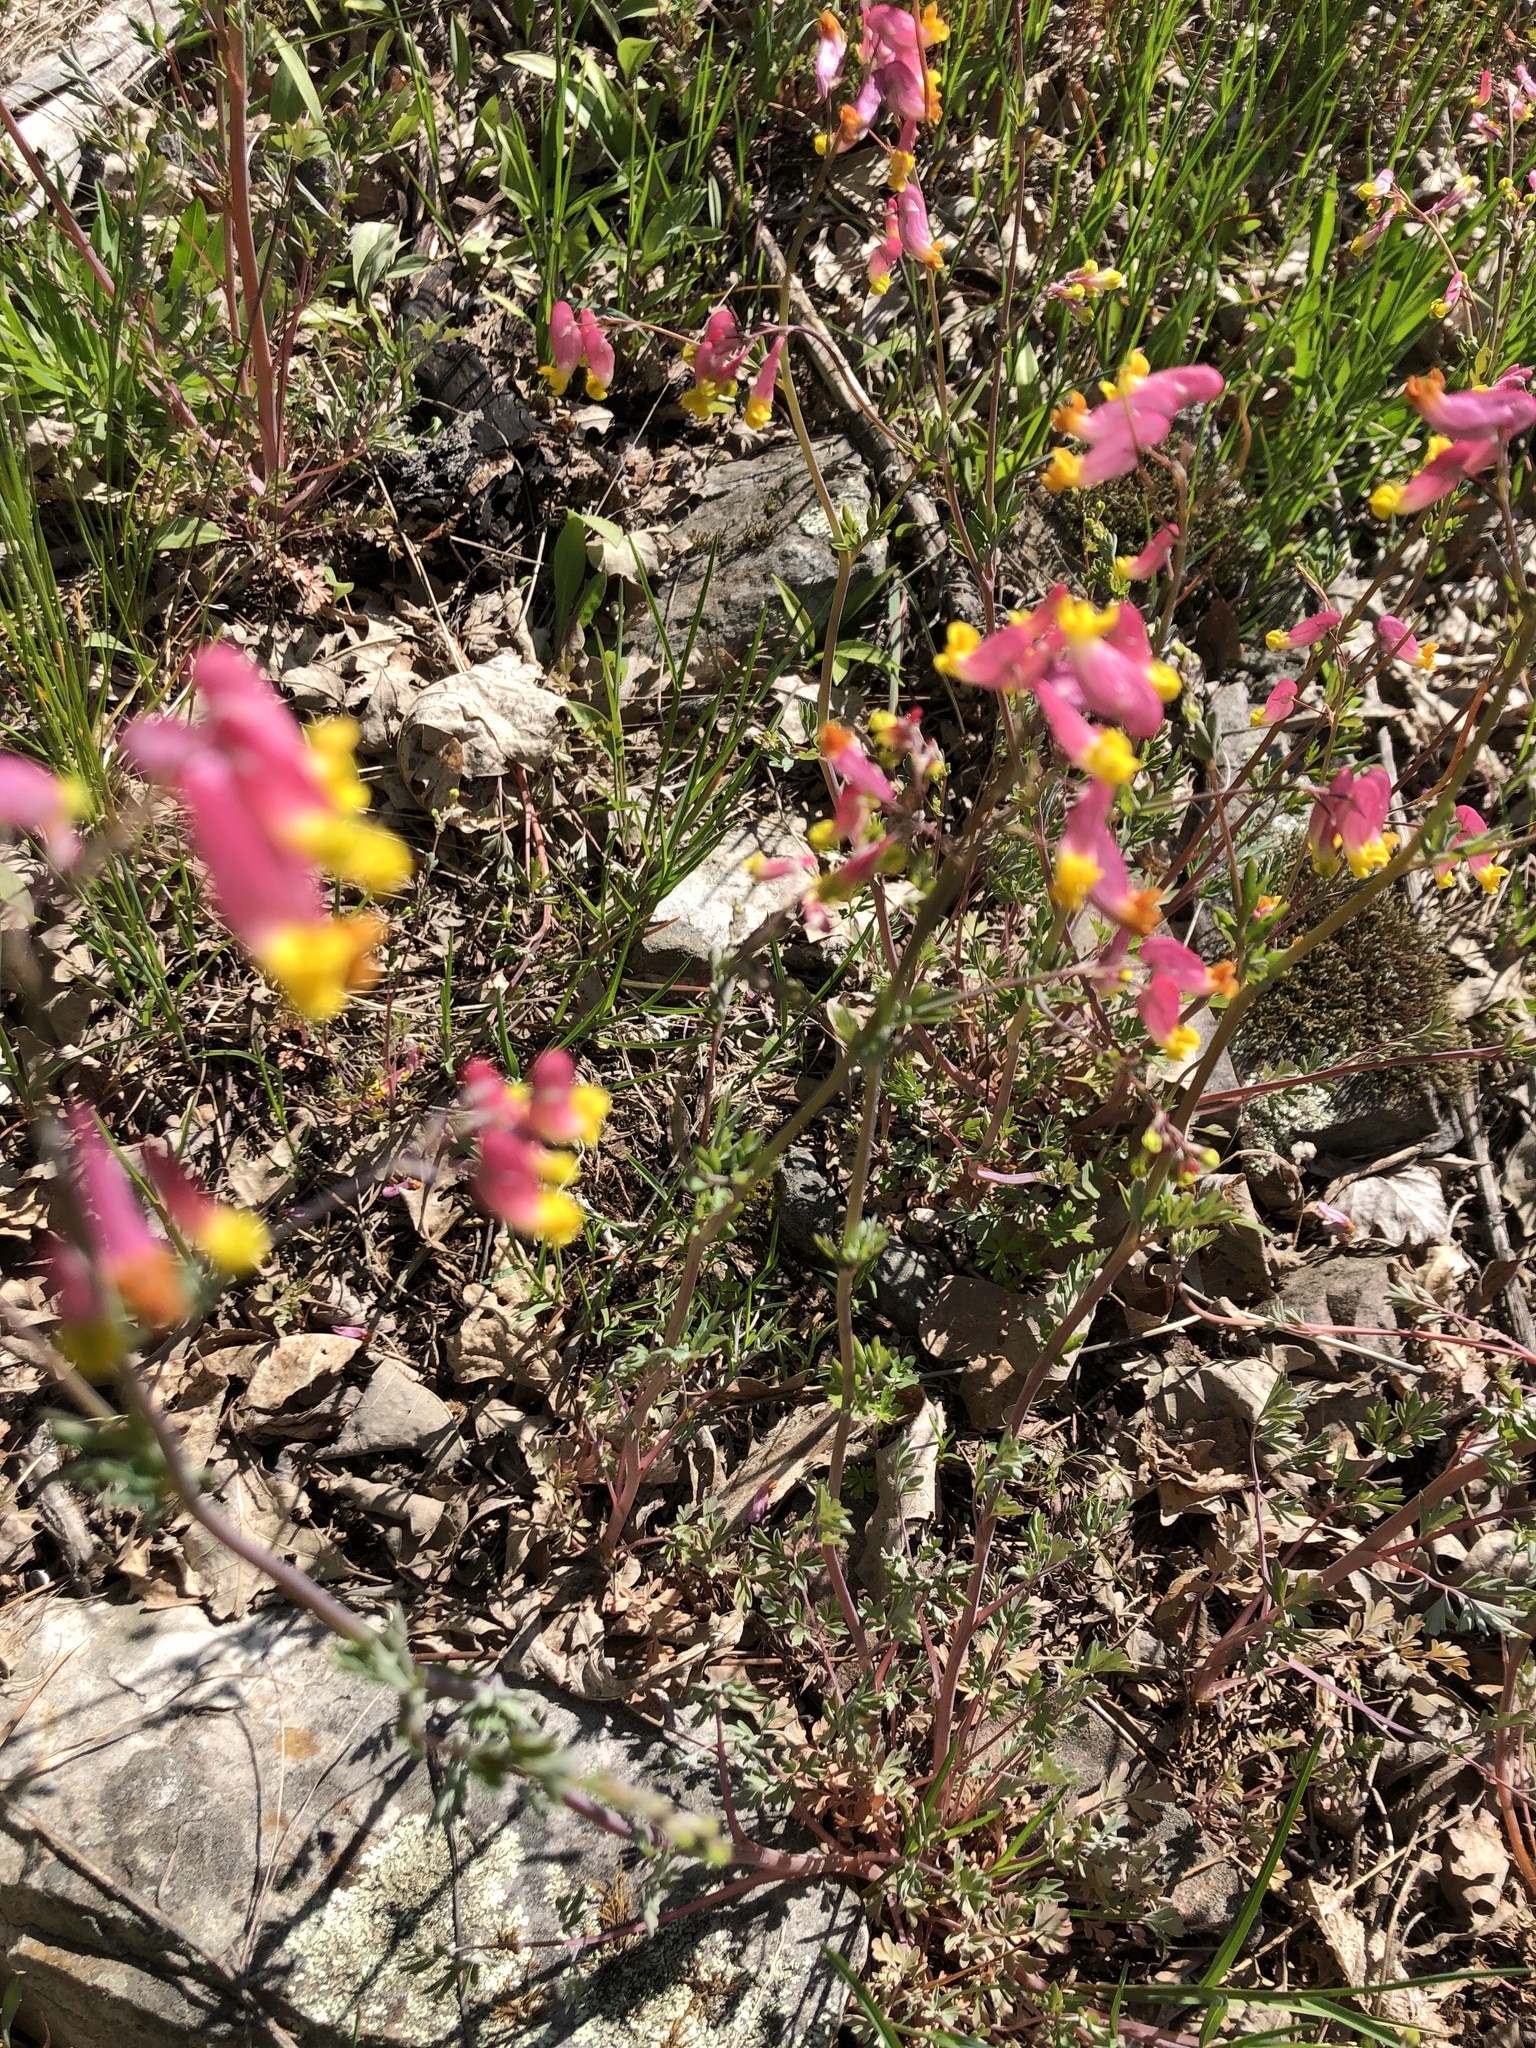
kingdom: Plantae
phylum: Tracheophyta
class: Magnoliopsida
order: Ranunculales
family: Papaveraceae
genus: Capnoides
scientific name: Capnoides sempervirens
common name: Rock harlequin
